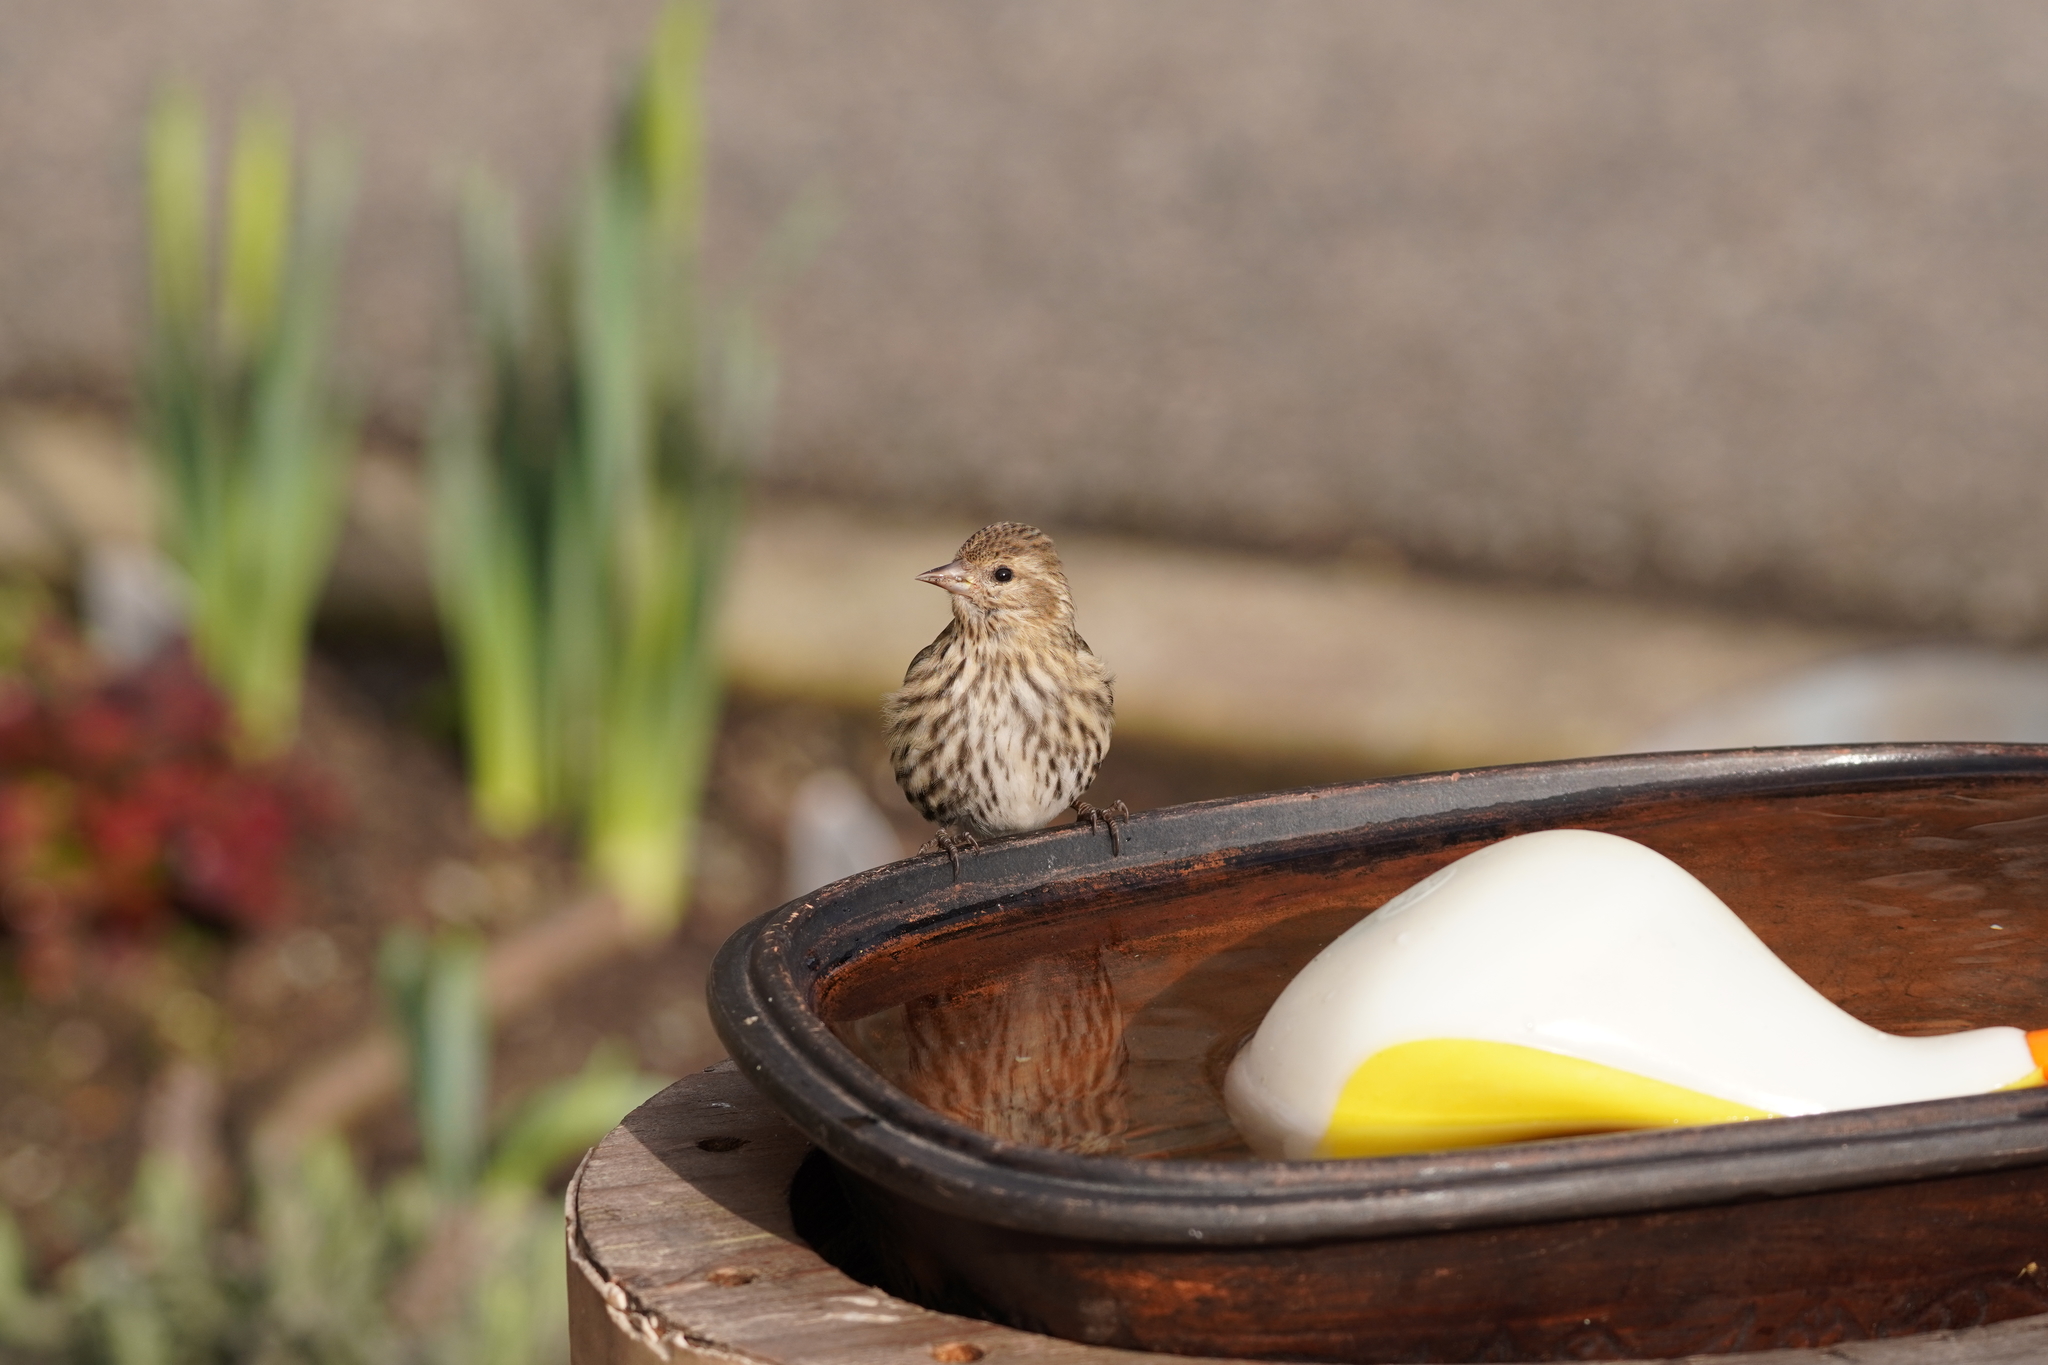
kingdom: Animalia
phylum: Chordata
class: Aves
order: Passeriformes
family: Fringillidae
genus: Spinus
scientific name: Spinus pinus
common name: Pine siskin
